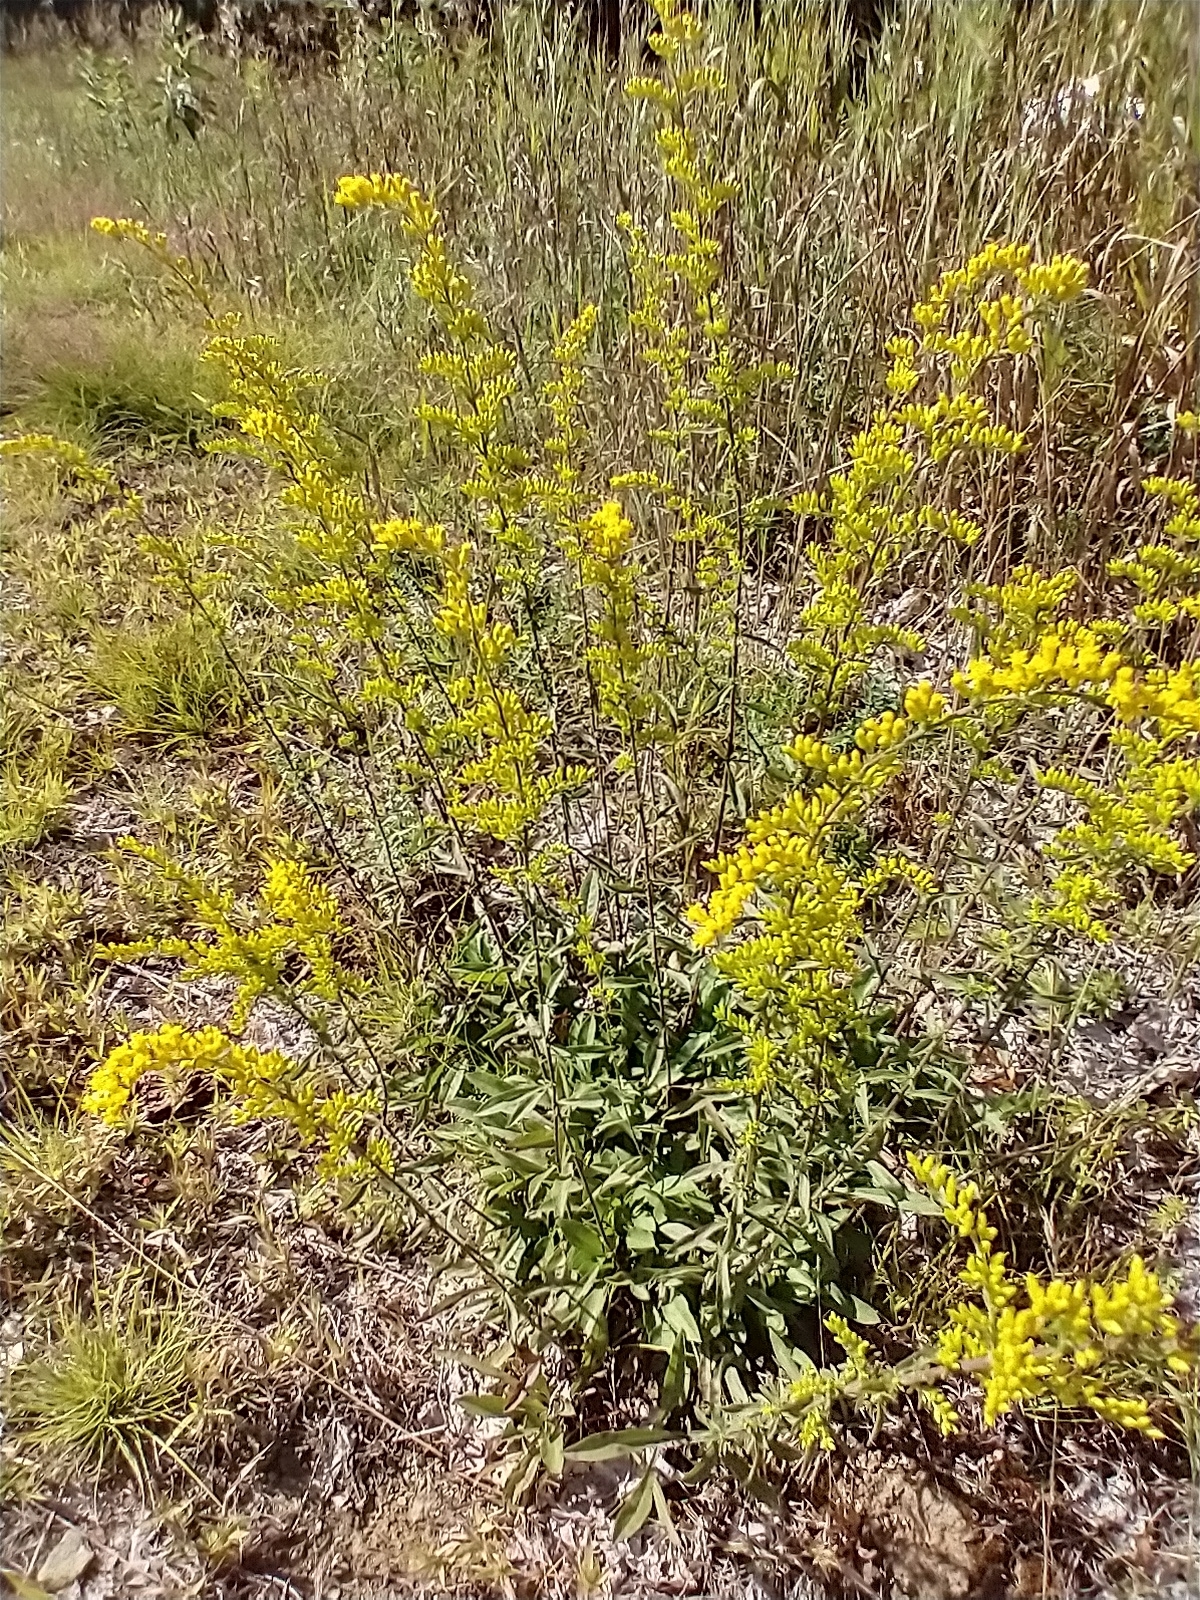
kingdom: Plantae
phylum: Tracheophyta
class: Magnoliopsida
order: Asterales
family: Asteraceae
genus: Solidago
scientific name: Solidago nemoralis
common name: Grey goldenrod
